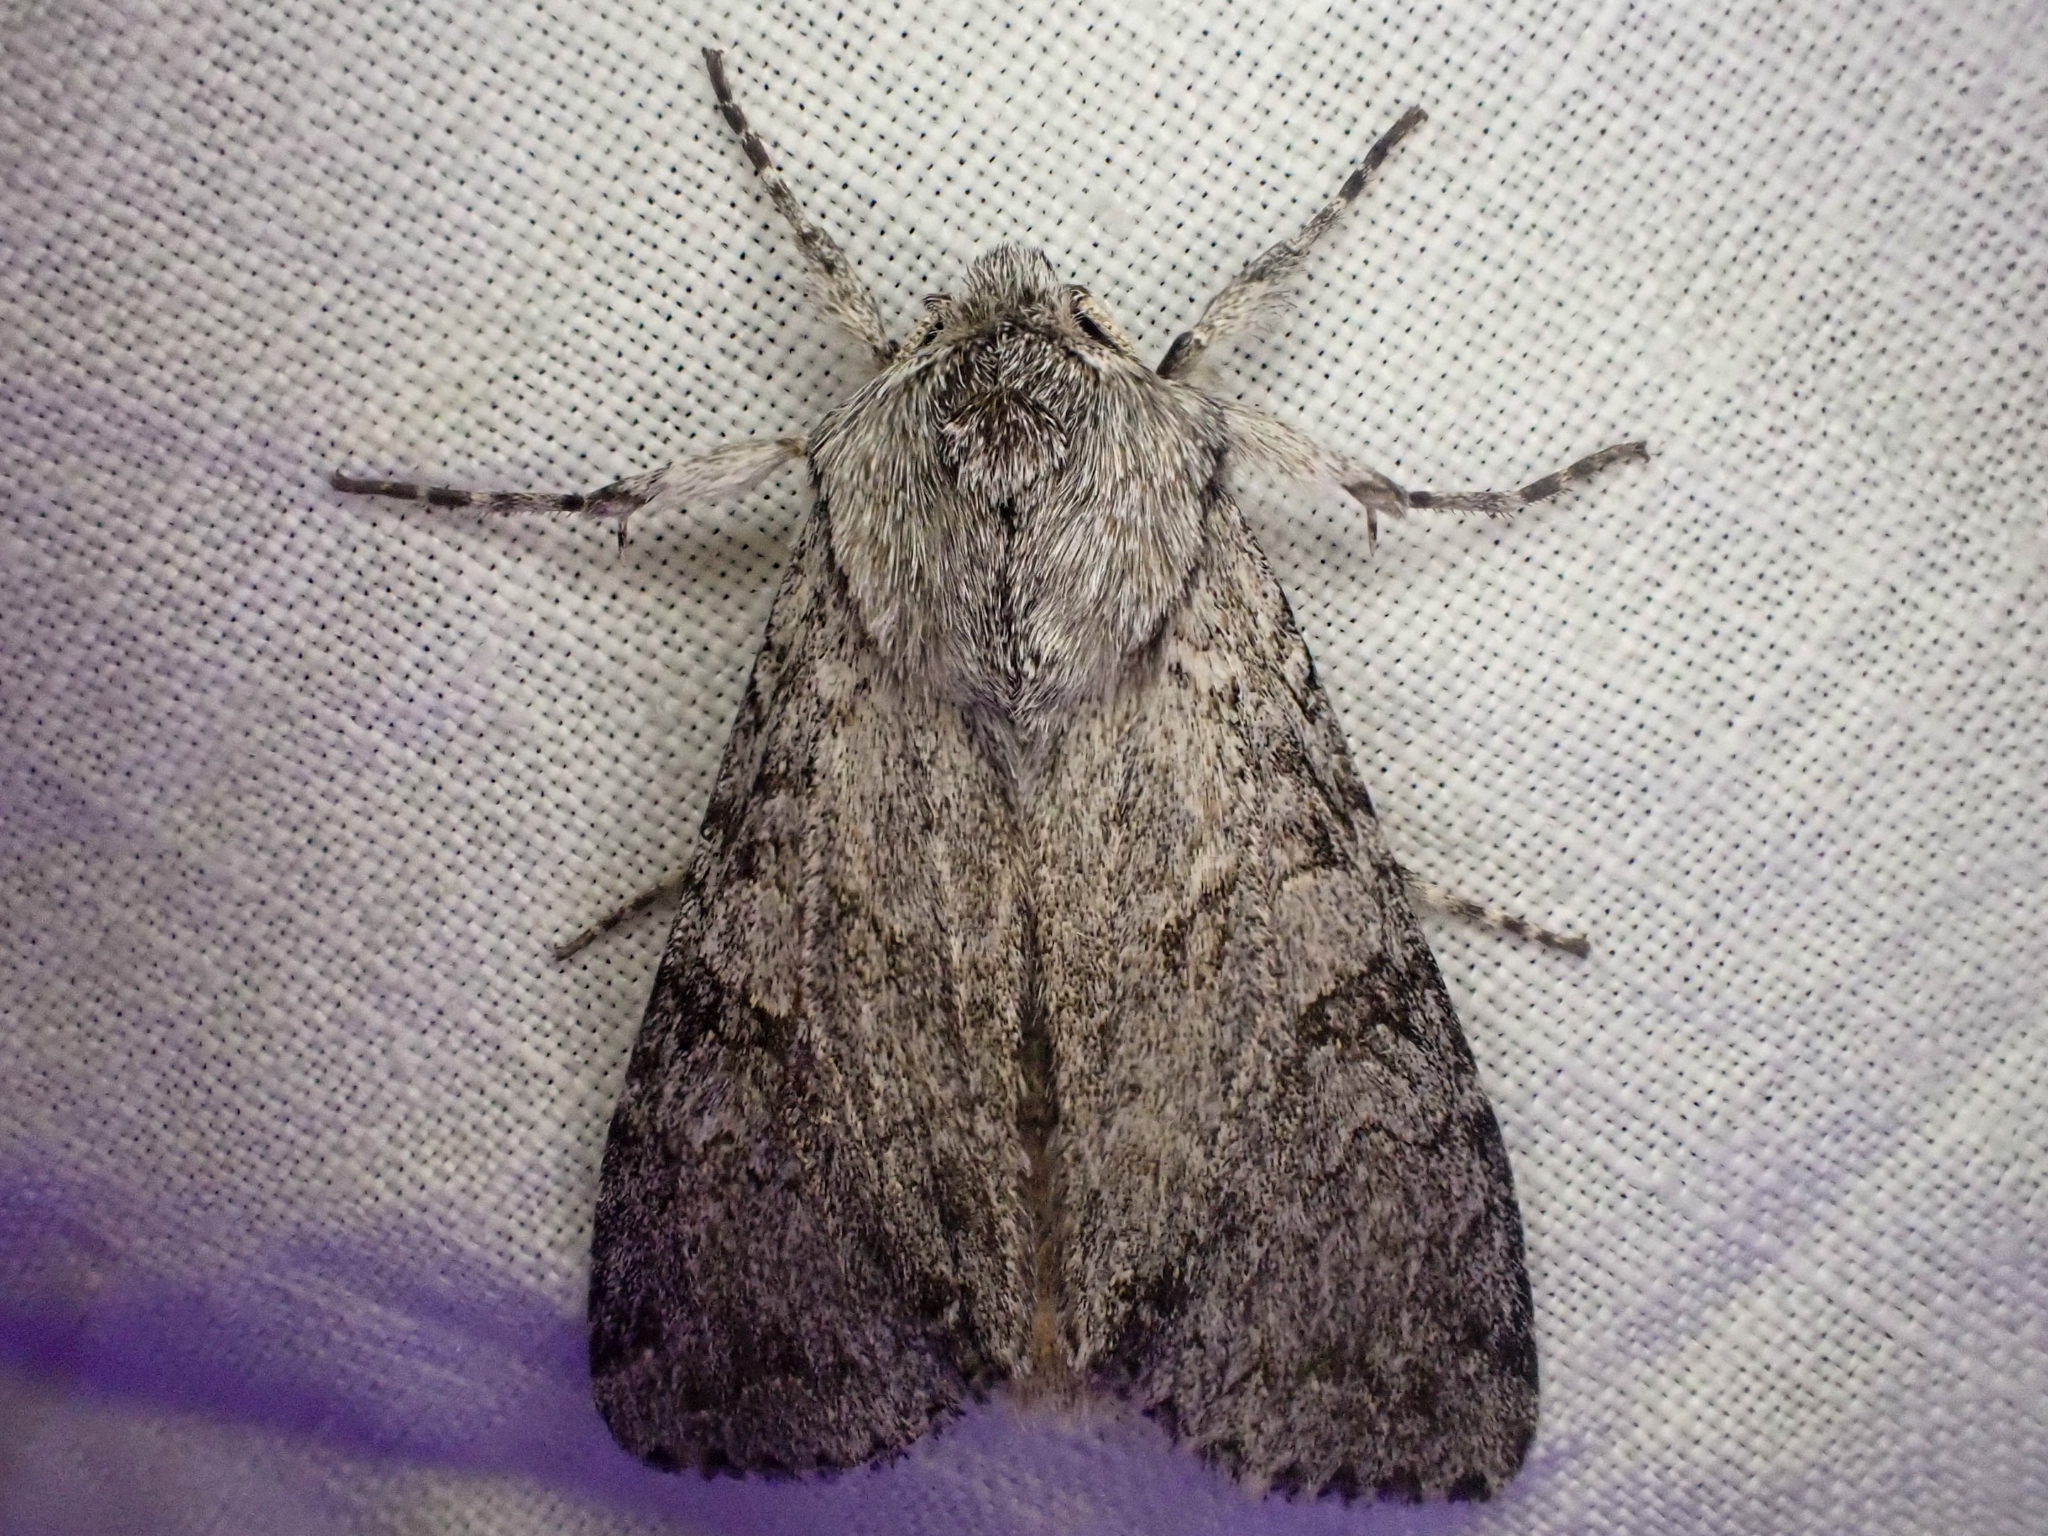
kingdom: Animalia
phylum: Arthropoda
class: Insecta
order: Lepidoptera
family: Noctuidae
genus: Polia
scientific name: Polia piniae
